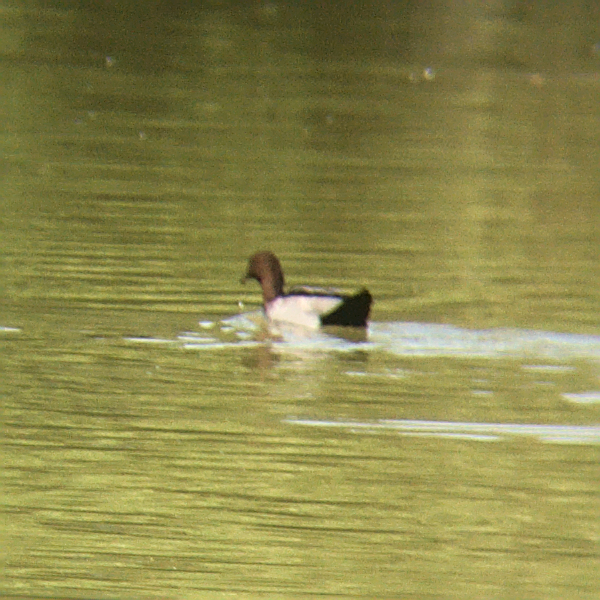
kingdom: Animalia
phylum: Chordata
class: Aves
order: Anseriformes
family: Anatidae
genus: Chenonetta
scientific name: Chenonetta jubata
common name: Maned duck
